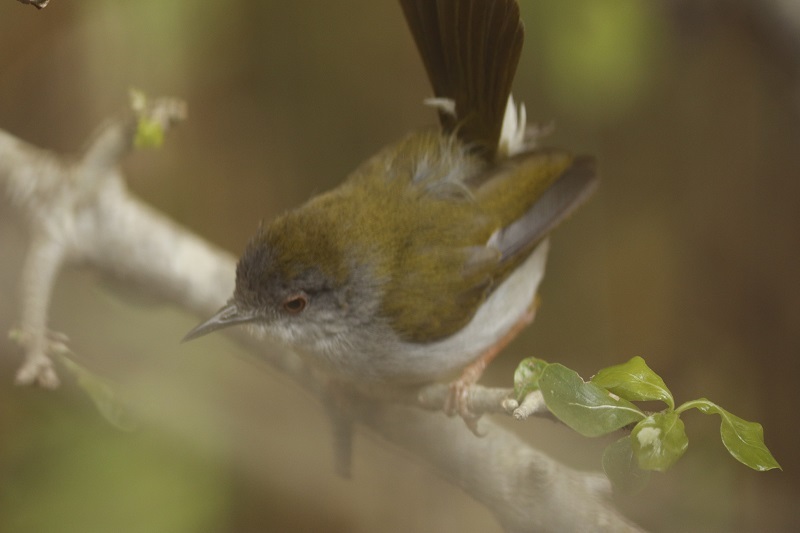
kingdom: Animalia
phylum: Chordata
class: Aves
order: Passeriformes
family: Cisticolidae
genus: Camaroptera
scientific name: Camaroptera brachyura
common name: Green-backed camaroptera
